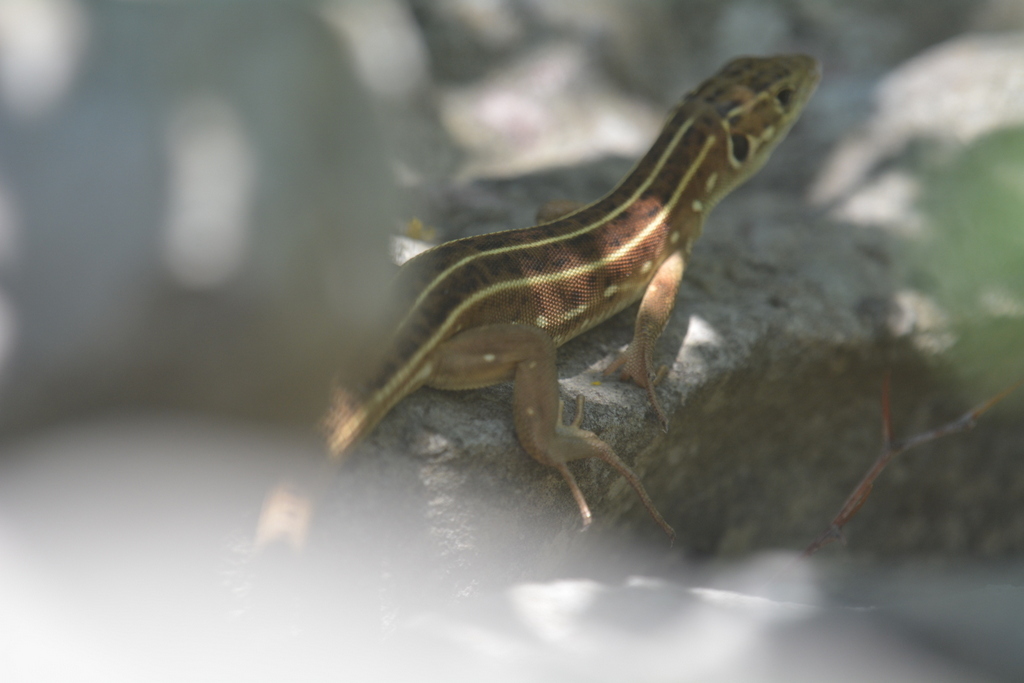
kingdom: Animalia
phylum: Chordata
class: Squamata
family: Lacertidae
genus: Lacerta
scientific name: Lacerta trilineata
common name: Balkan green lizard
